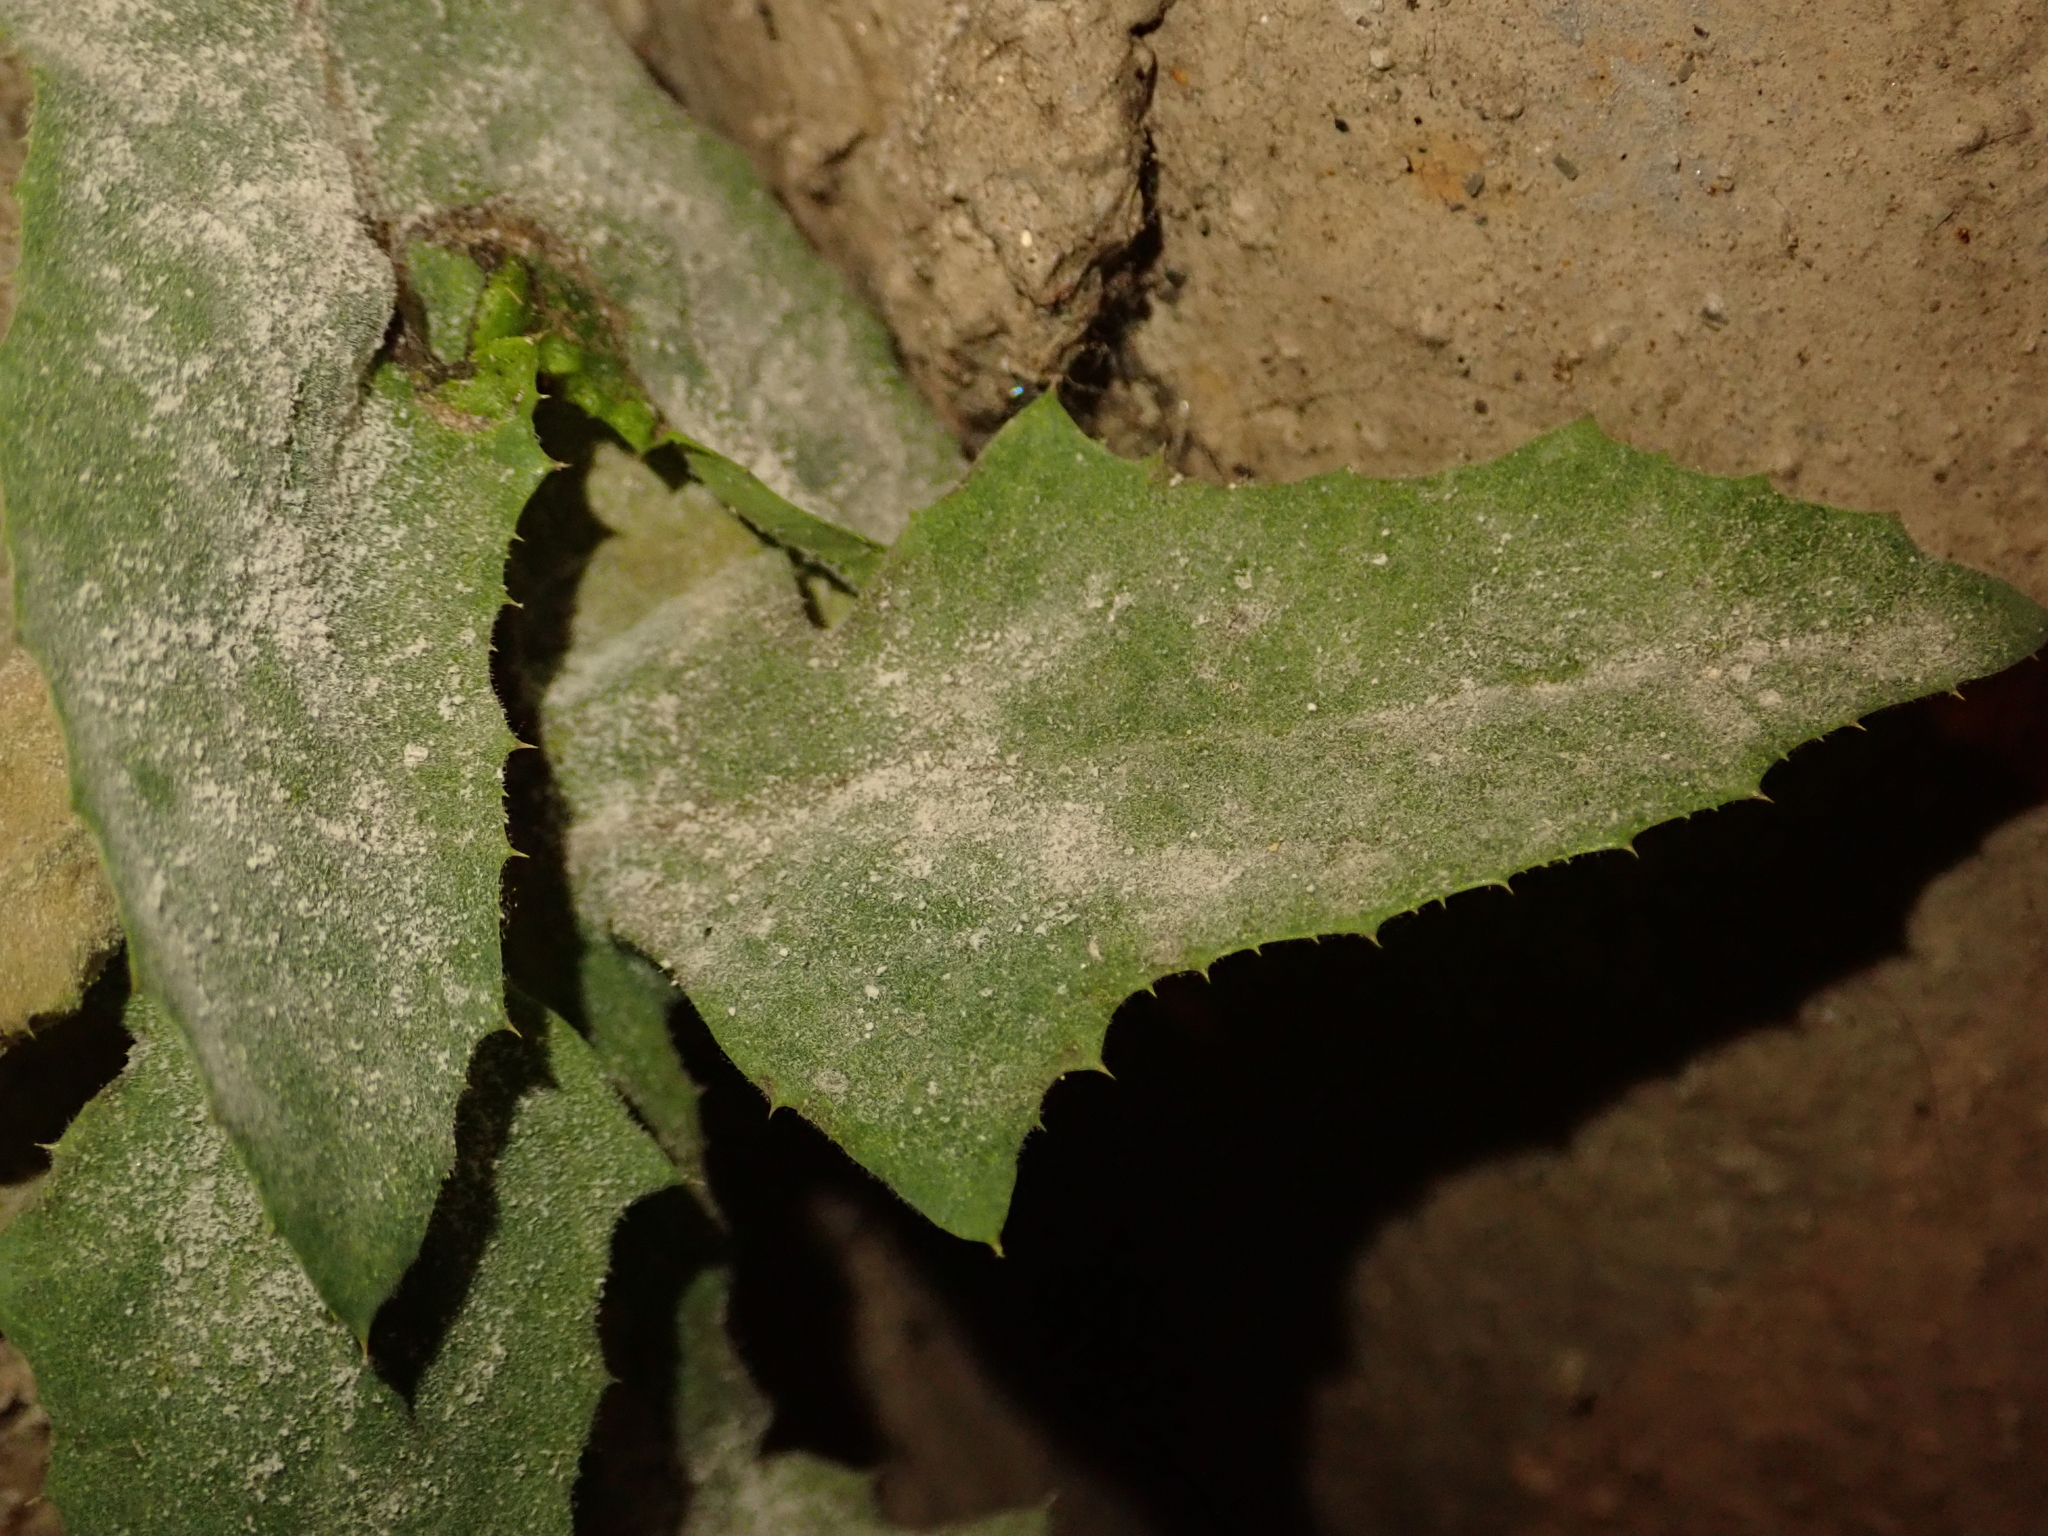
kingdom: Fungi
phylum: Ascomycota
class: Leotiomycetes
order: Helotiales
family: Erysiphaceae
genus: Golovinomyces
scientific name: Golovinomyces sonchicola
